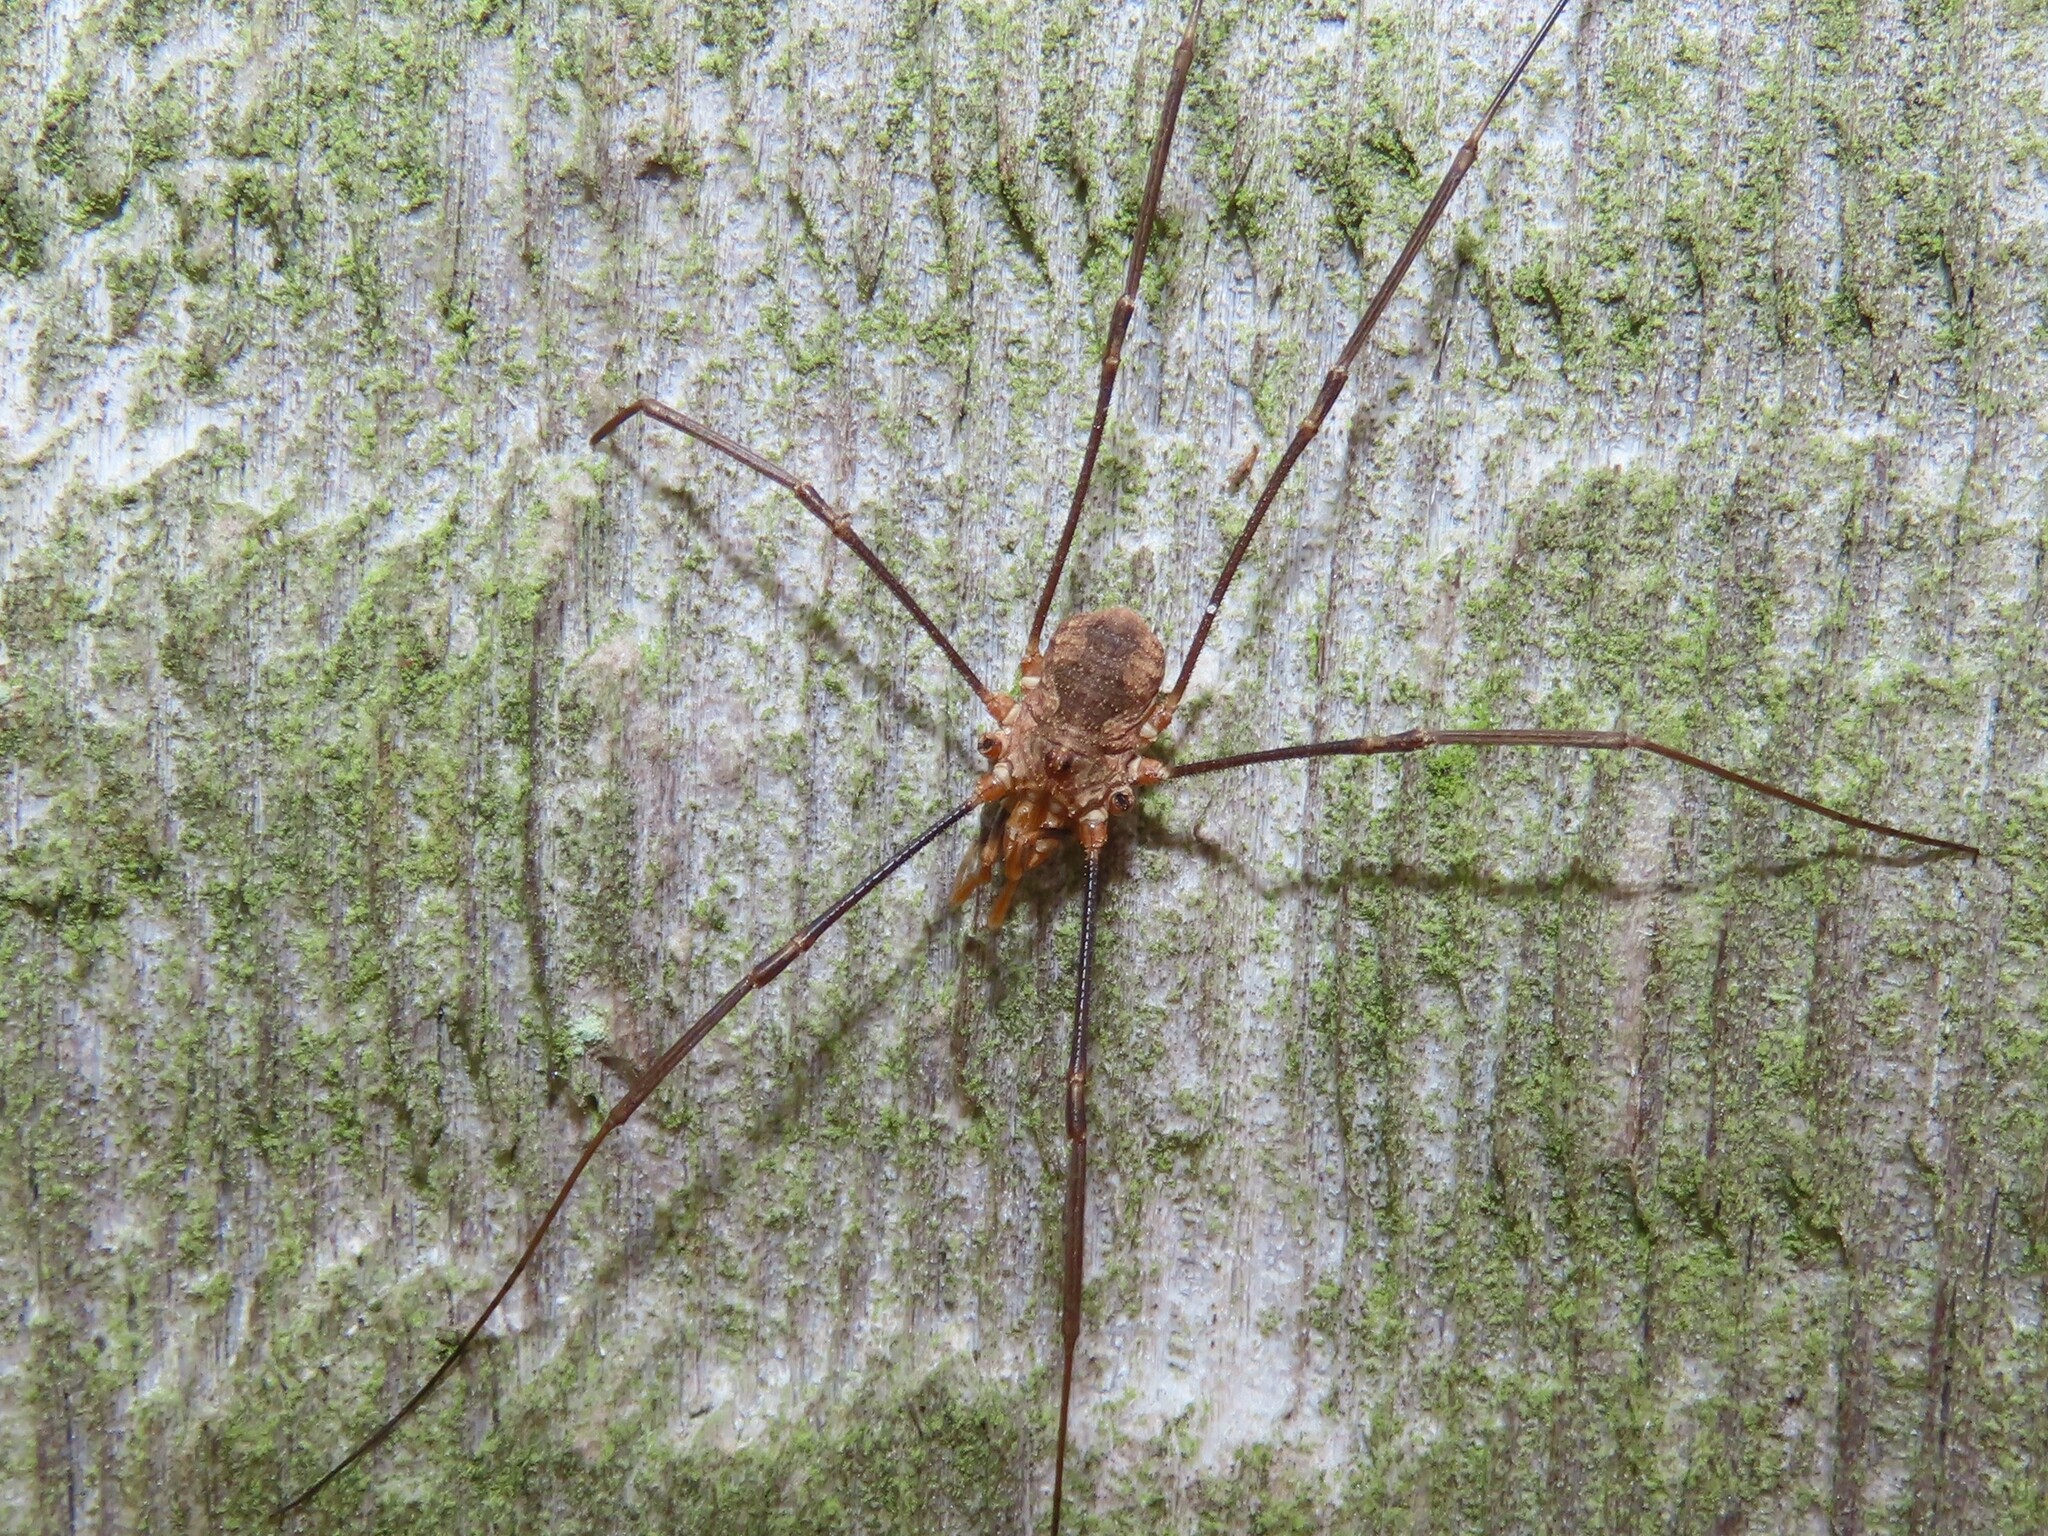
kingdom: Animalia
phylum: Arthropoda
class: Arachnida
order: Opiliones
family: Phalangiidae
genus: Phalangium
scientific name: Phalangium opilio
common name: Daddy longleg
